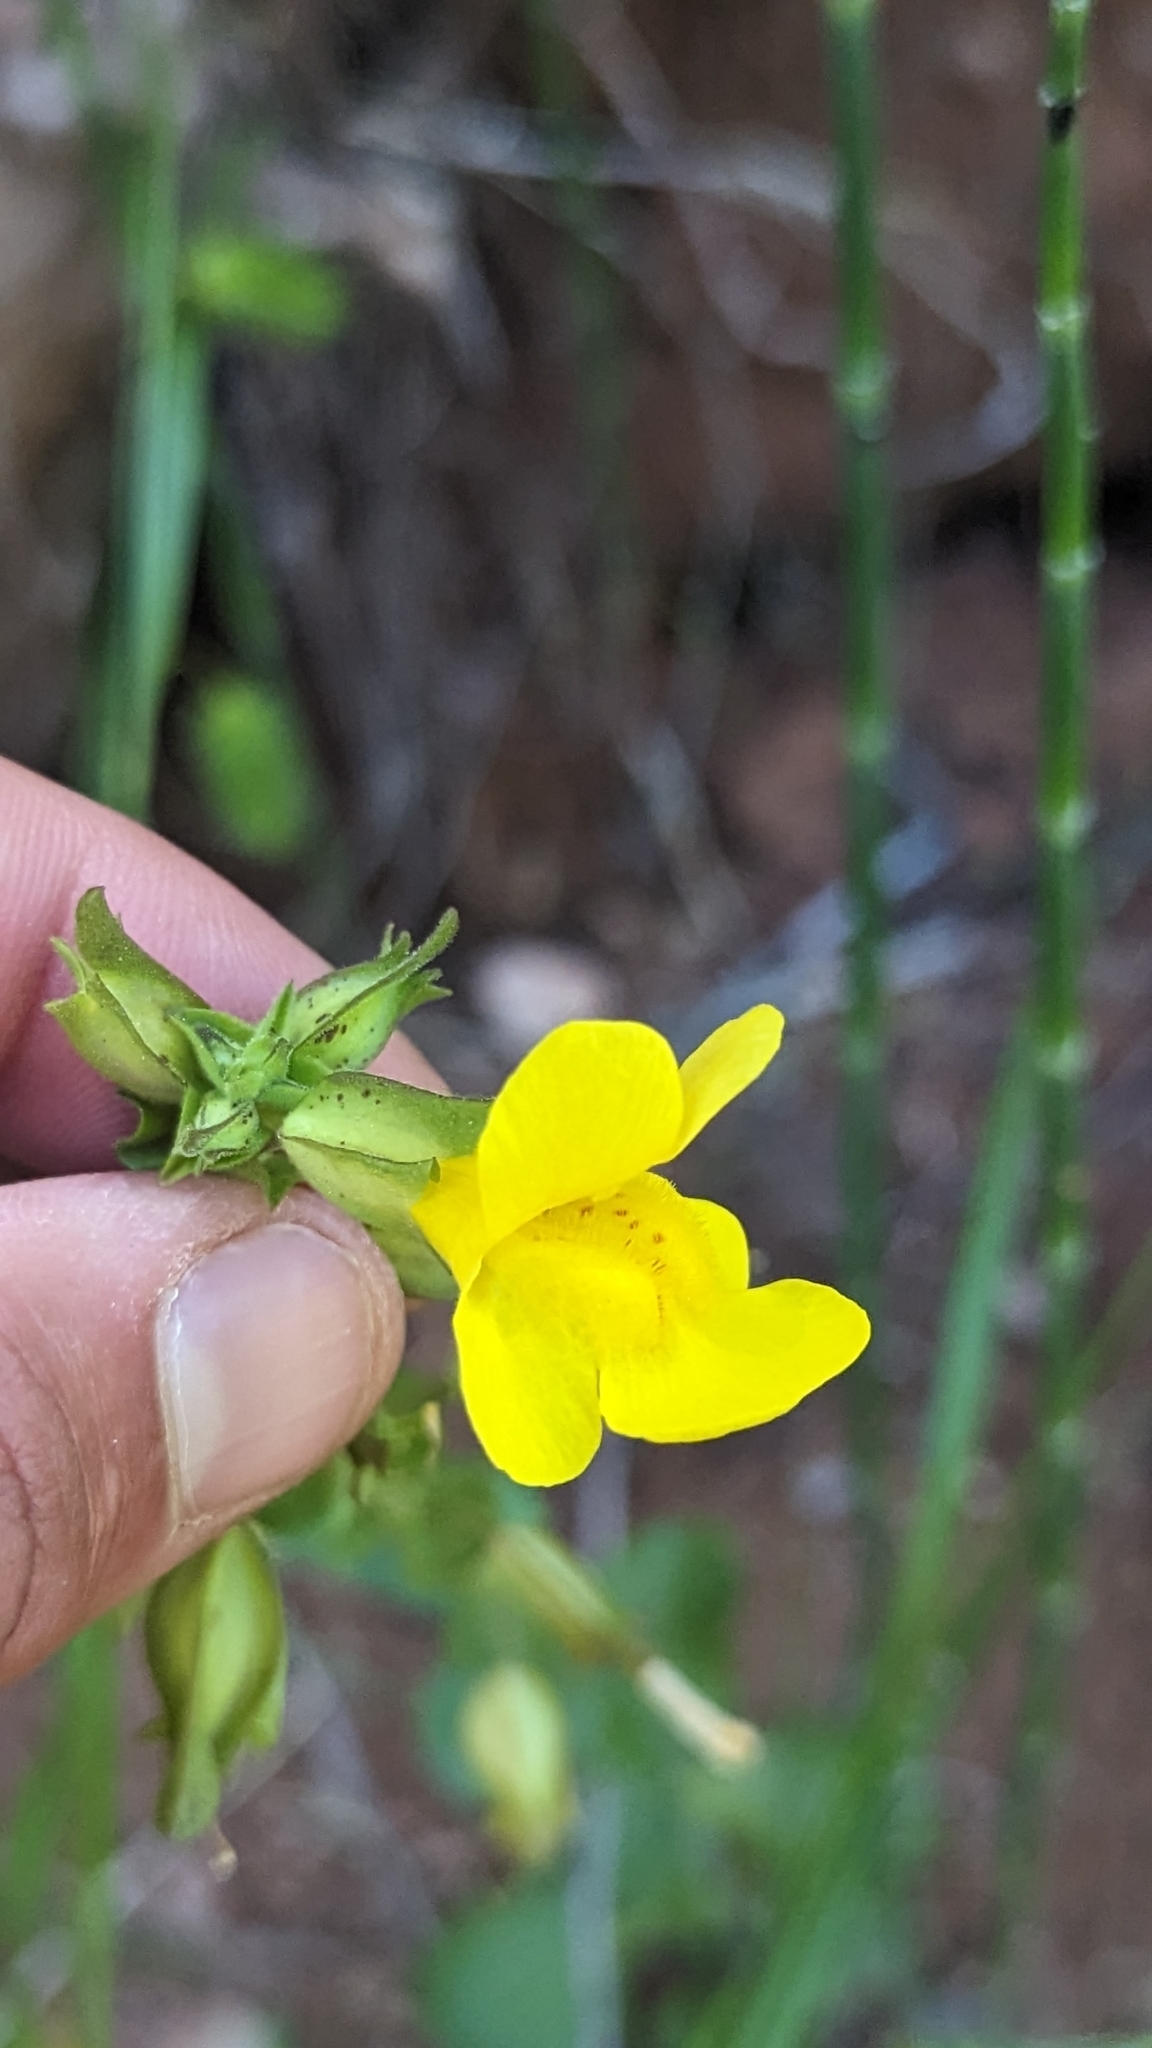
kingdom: Plantae
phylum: Tracheophyta
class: Magnoliopsida
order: Lamiales
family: Phrymaceae
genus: Erythranthe
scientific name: Erythranthe guttata
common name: Monkeyflower
